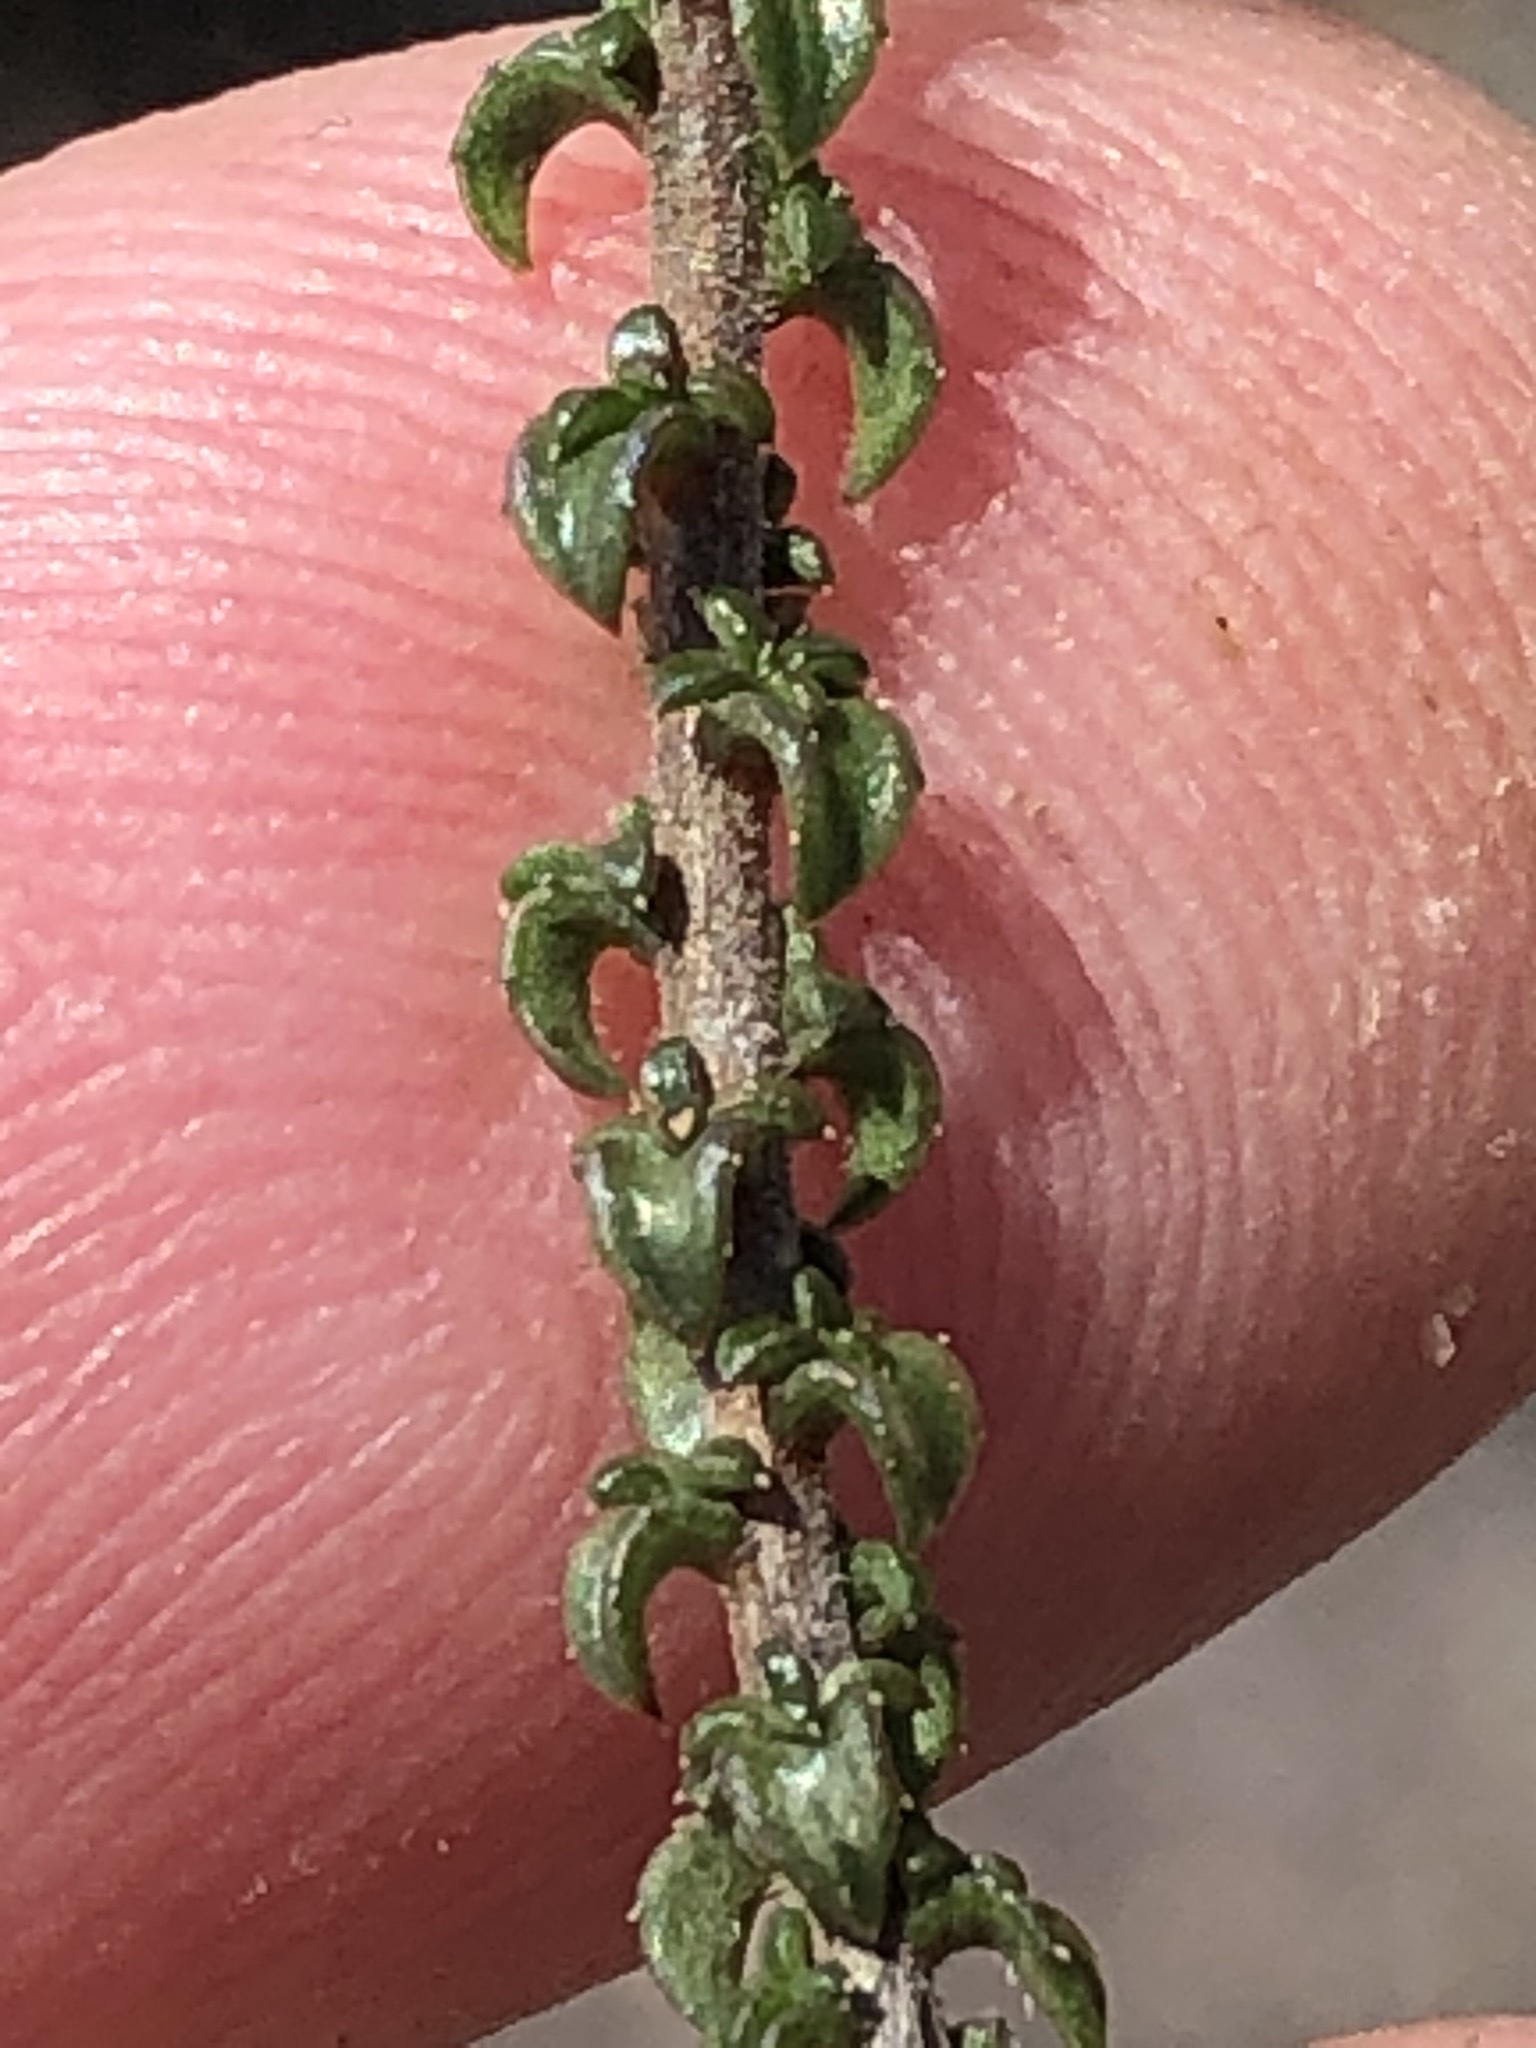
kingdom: Plantae
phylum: Tracheophyta
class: Magnoliopsida
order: Asterales
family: Campanulaceae
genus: Wahlenbergia
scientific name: Wahlenbergia desmantha
